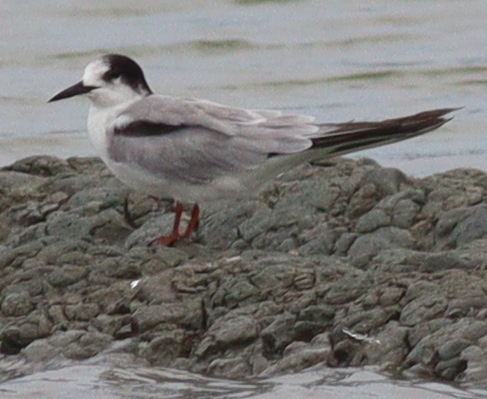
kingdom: Animalia
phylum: Chordata
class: Aves
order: Charadriiformes
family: Laridae
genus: Sterna
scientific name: Sterna hirundo
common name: Common tern
